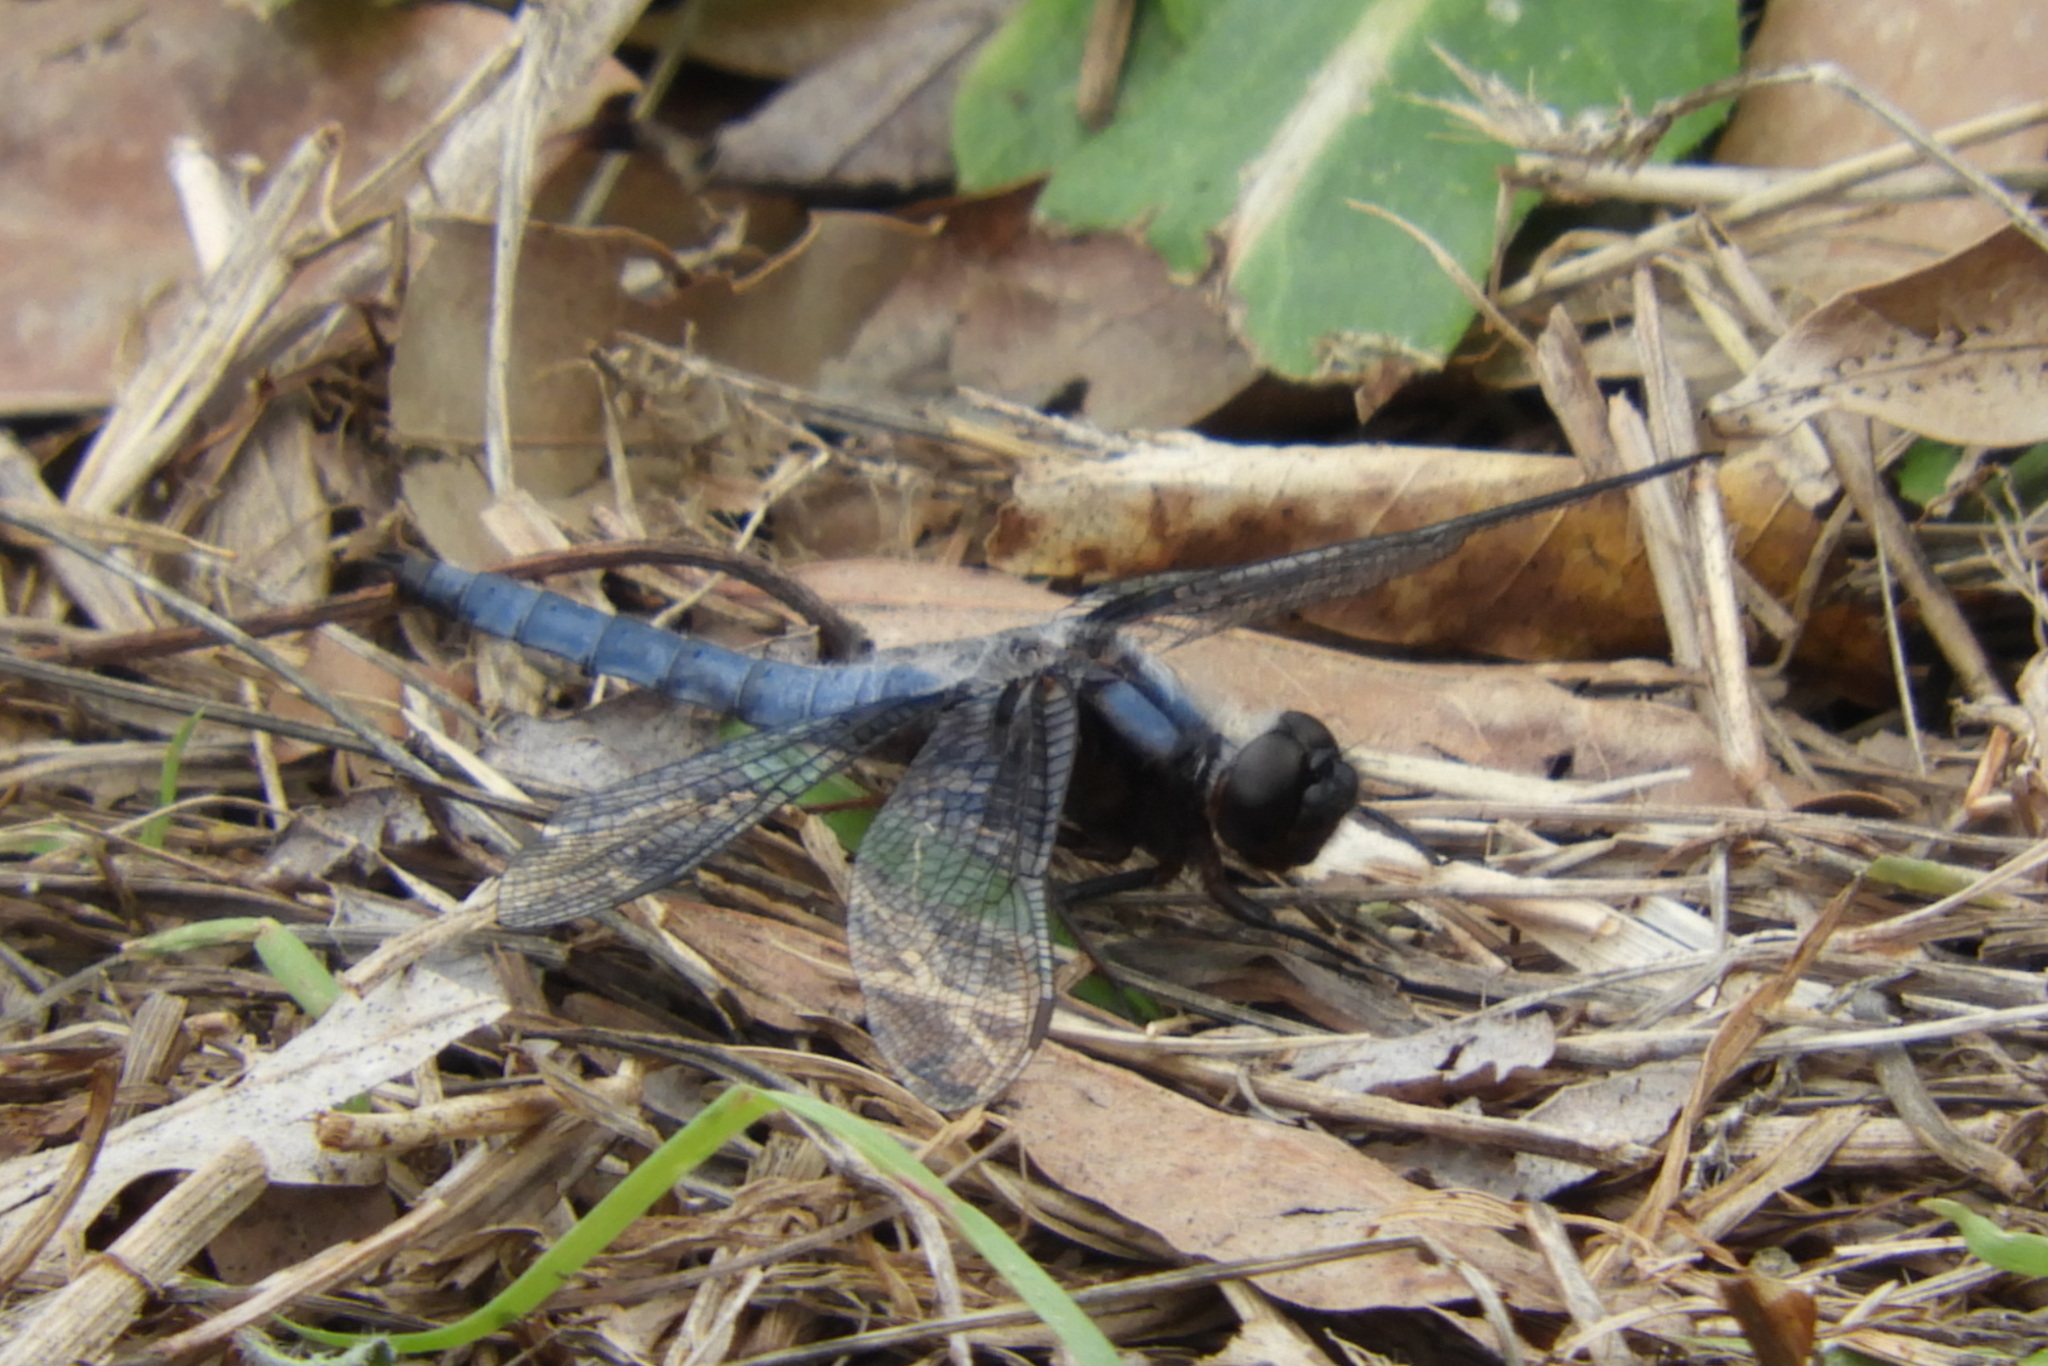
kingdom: Animalia
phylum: Arthropoda
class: Insecta
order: Odonata
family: Libellulidae
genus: Ladona
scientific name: Ladona deplanata
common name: Blue corporal
